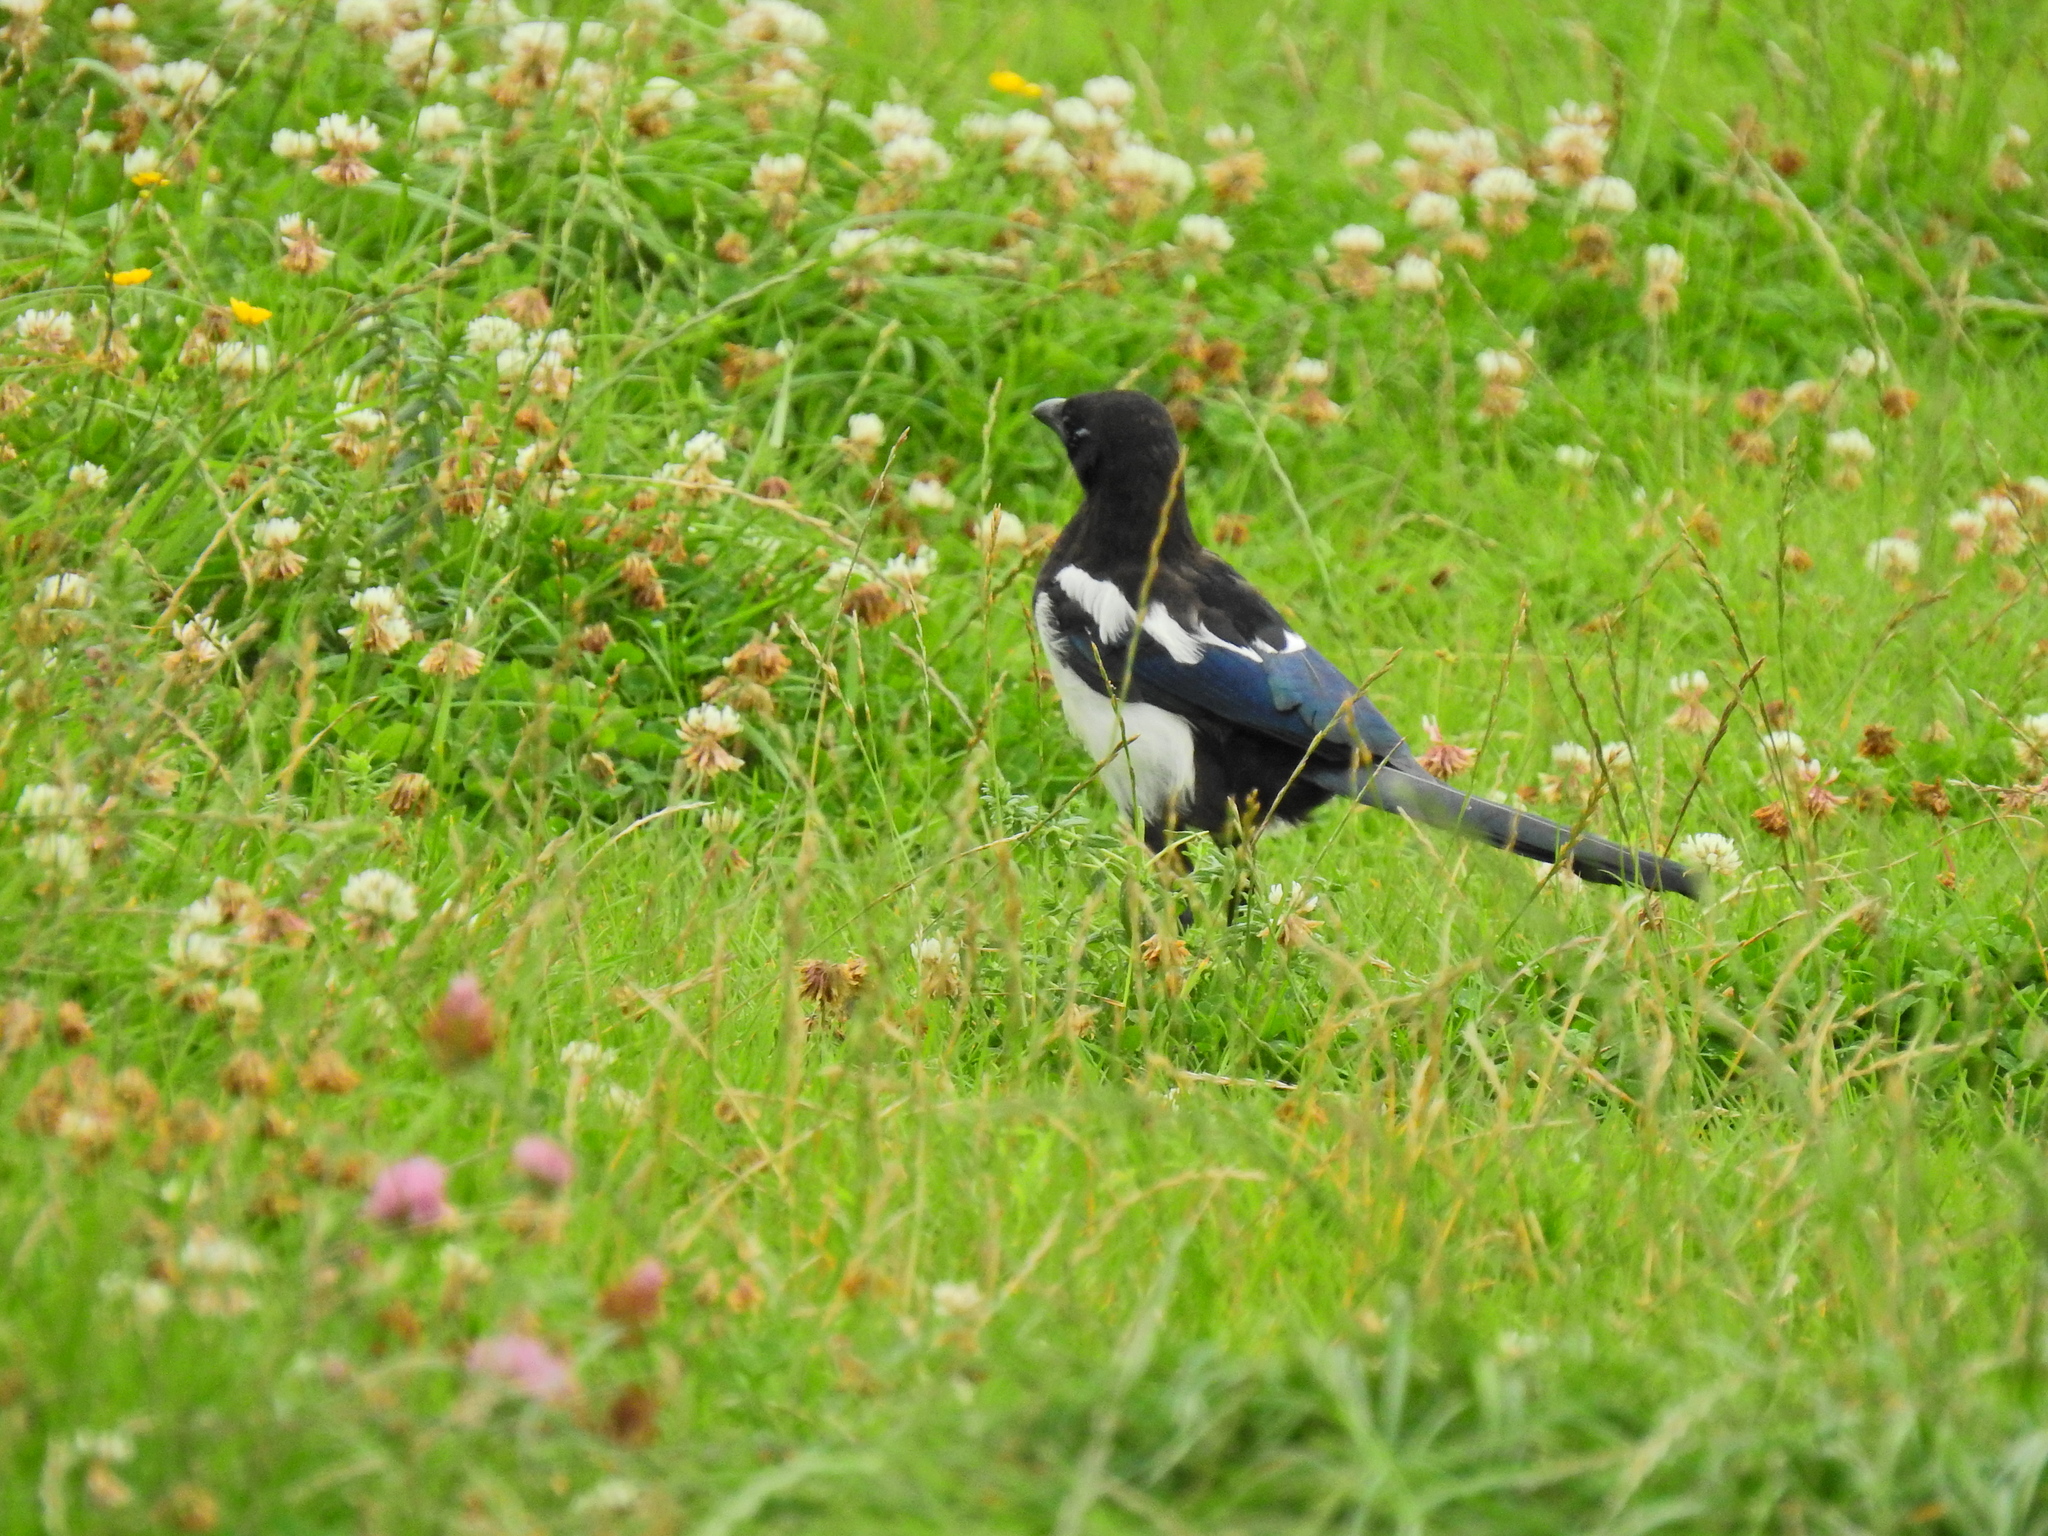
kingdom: Animalia
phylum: Chordata
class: Aves
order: Passeriformes
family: Corvidae
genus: Pica
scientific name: Pica pica
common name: Eurasian magpie
